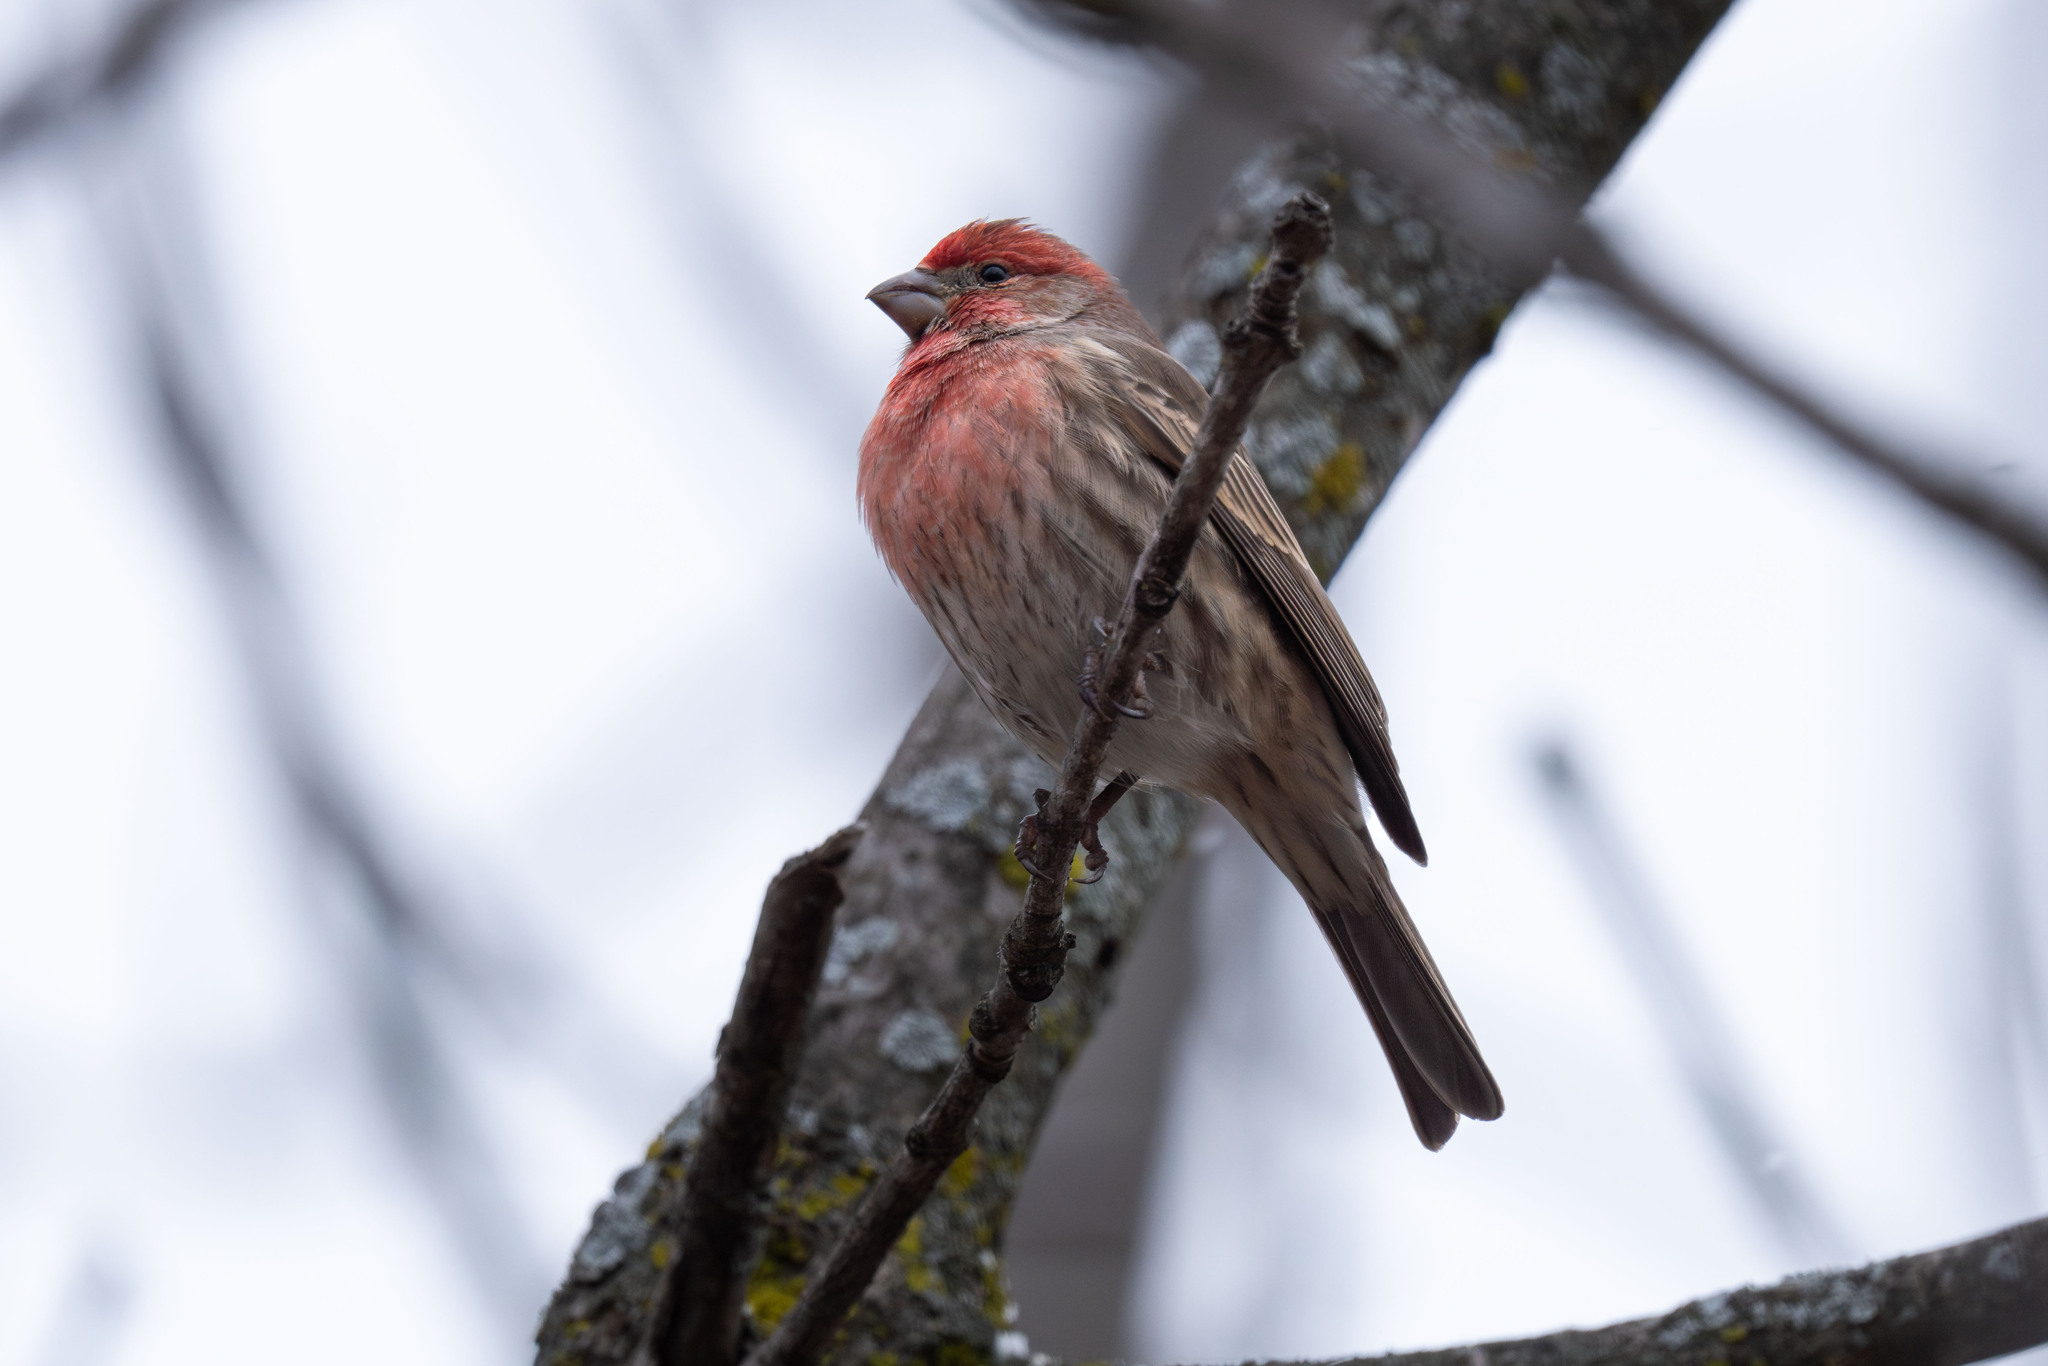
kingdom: Animalia
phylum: Chordata
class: Aves
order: Passeriformes
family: Fringillidae
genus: Haemorhous
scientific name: Haemorhous mexicanus
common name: House finch
